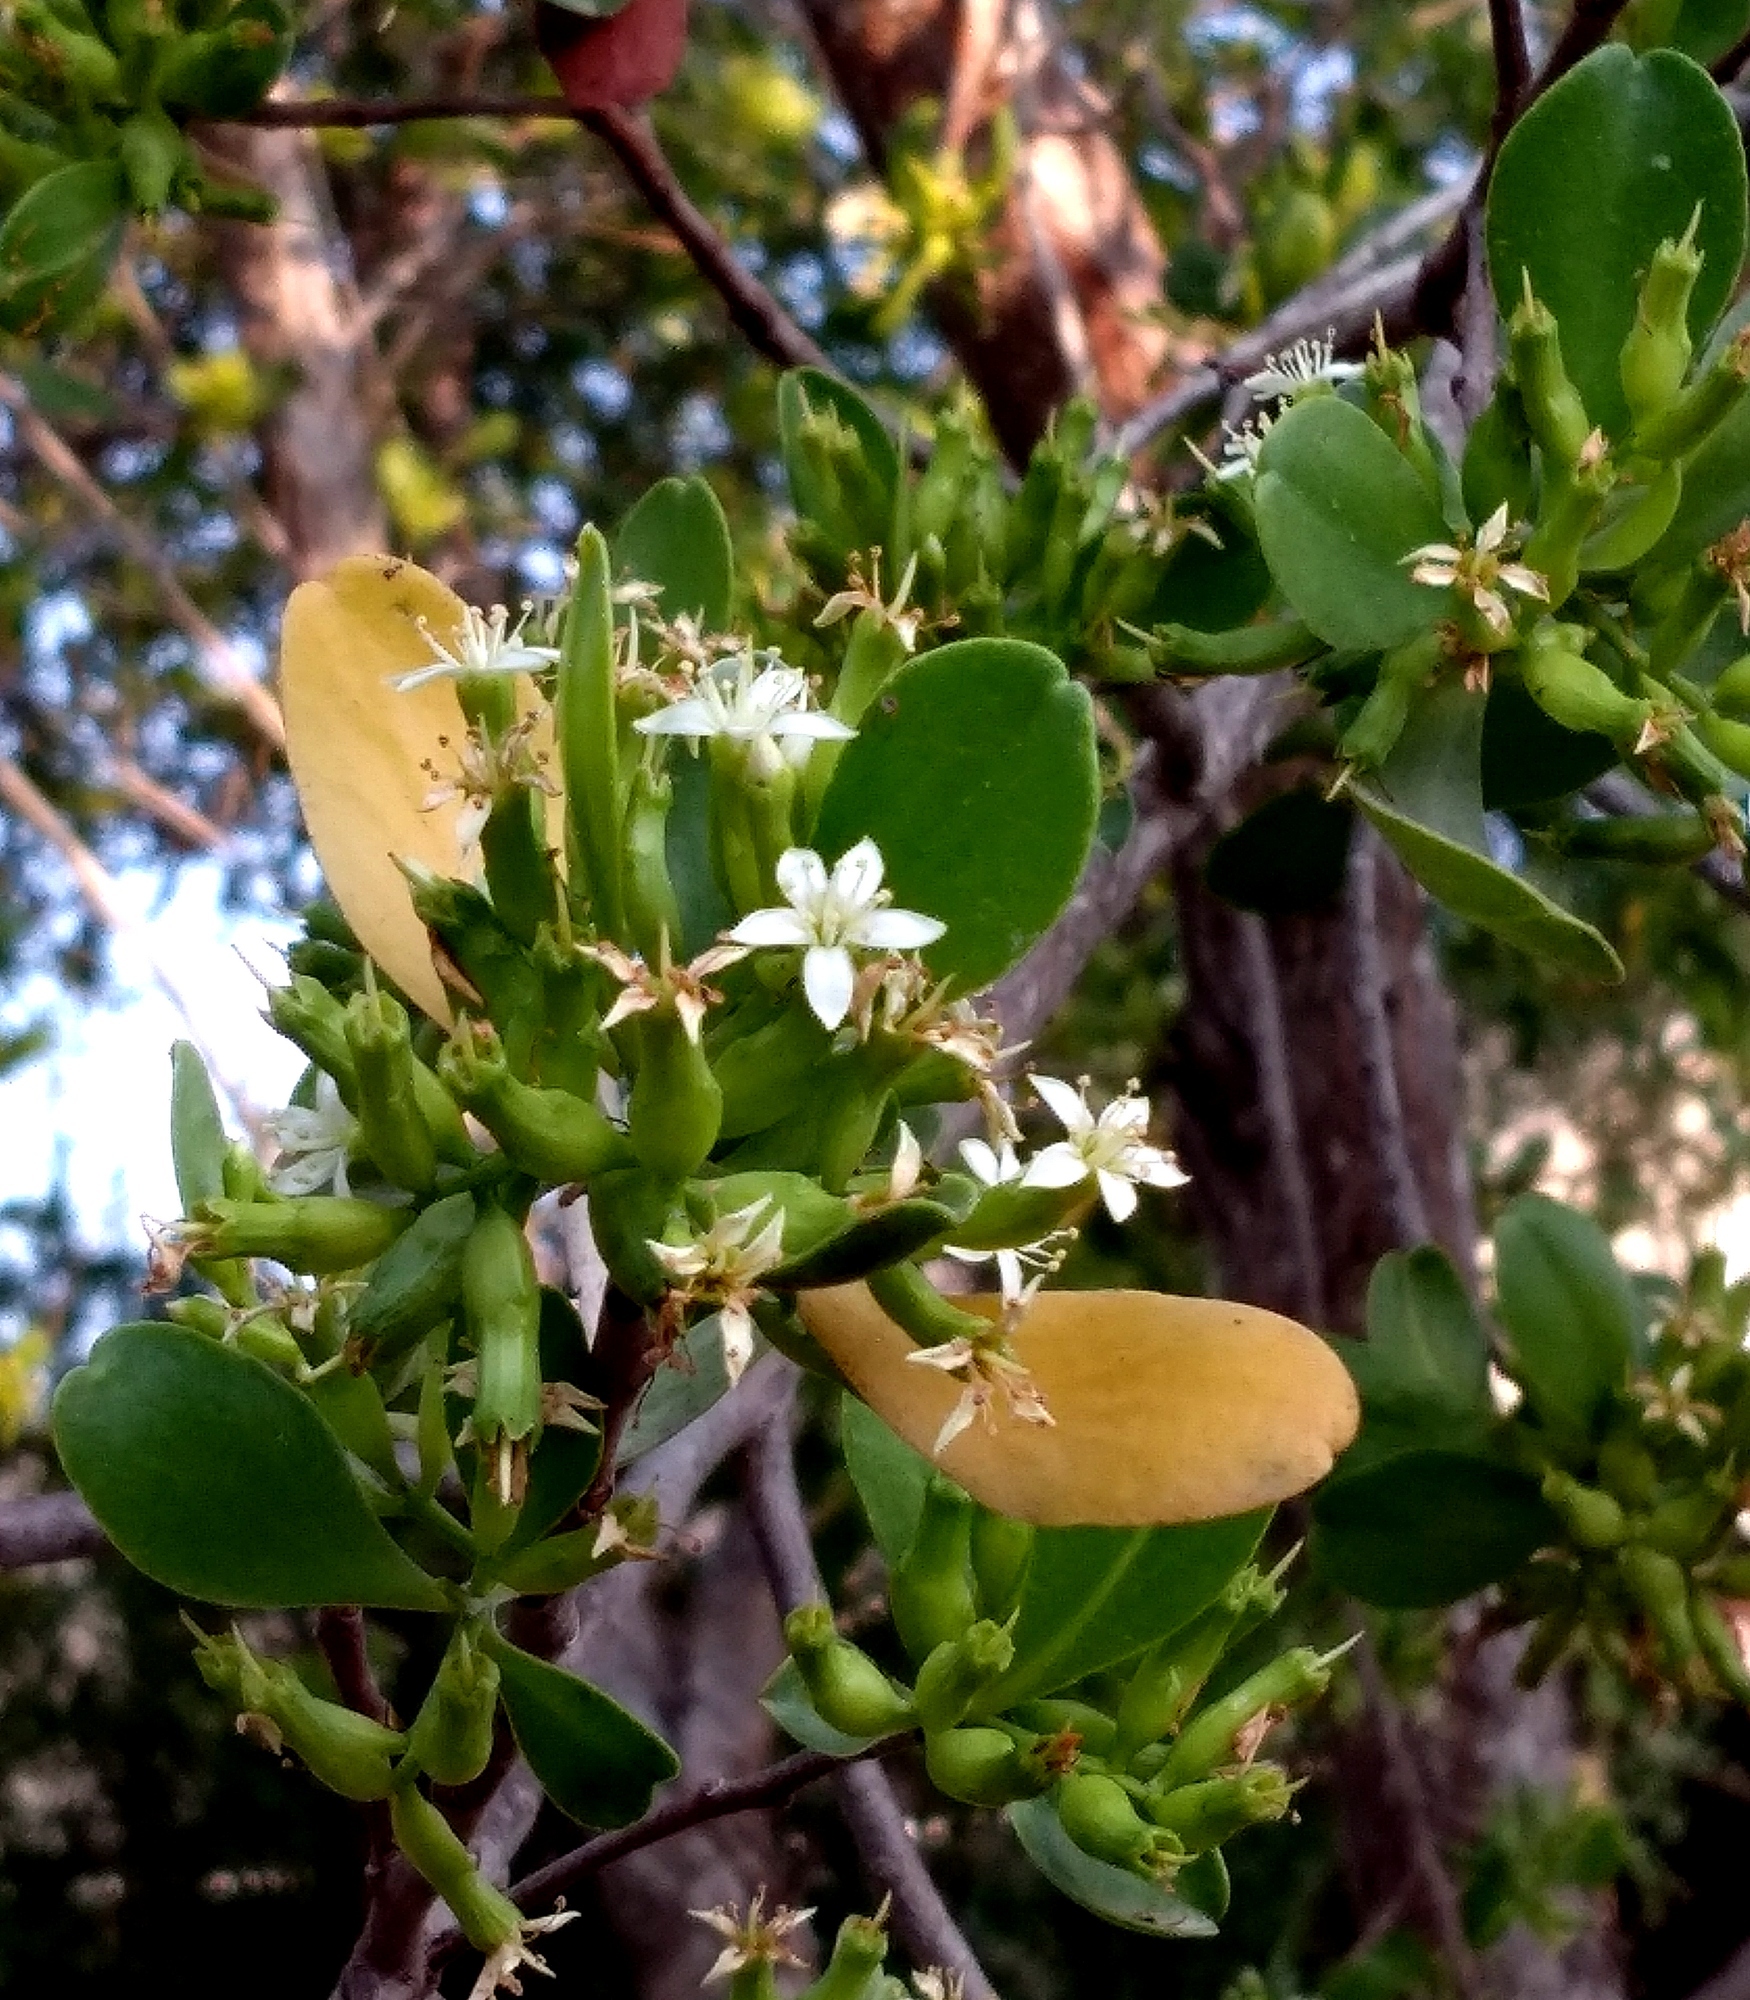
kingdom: Plantae
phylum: Tracheophyta
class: Magnoliopsida
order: Myrtales
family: Combretaceae
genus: Lumnitzera
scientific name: Lumnitzera racemosa
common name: White-flowered black mangrove
